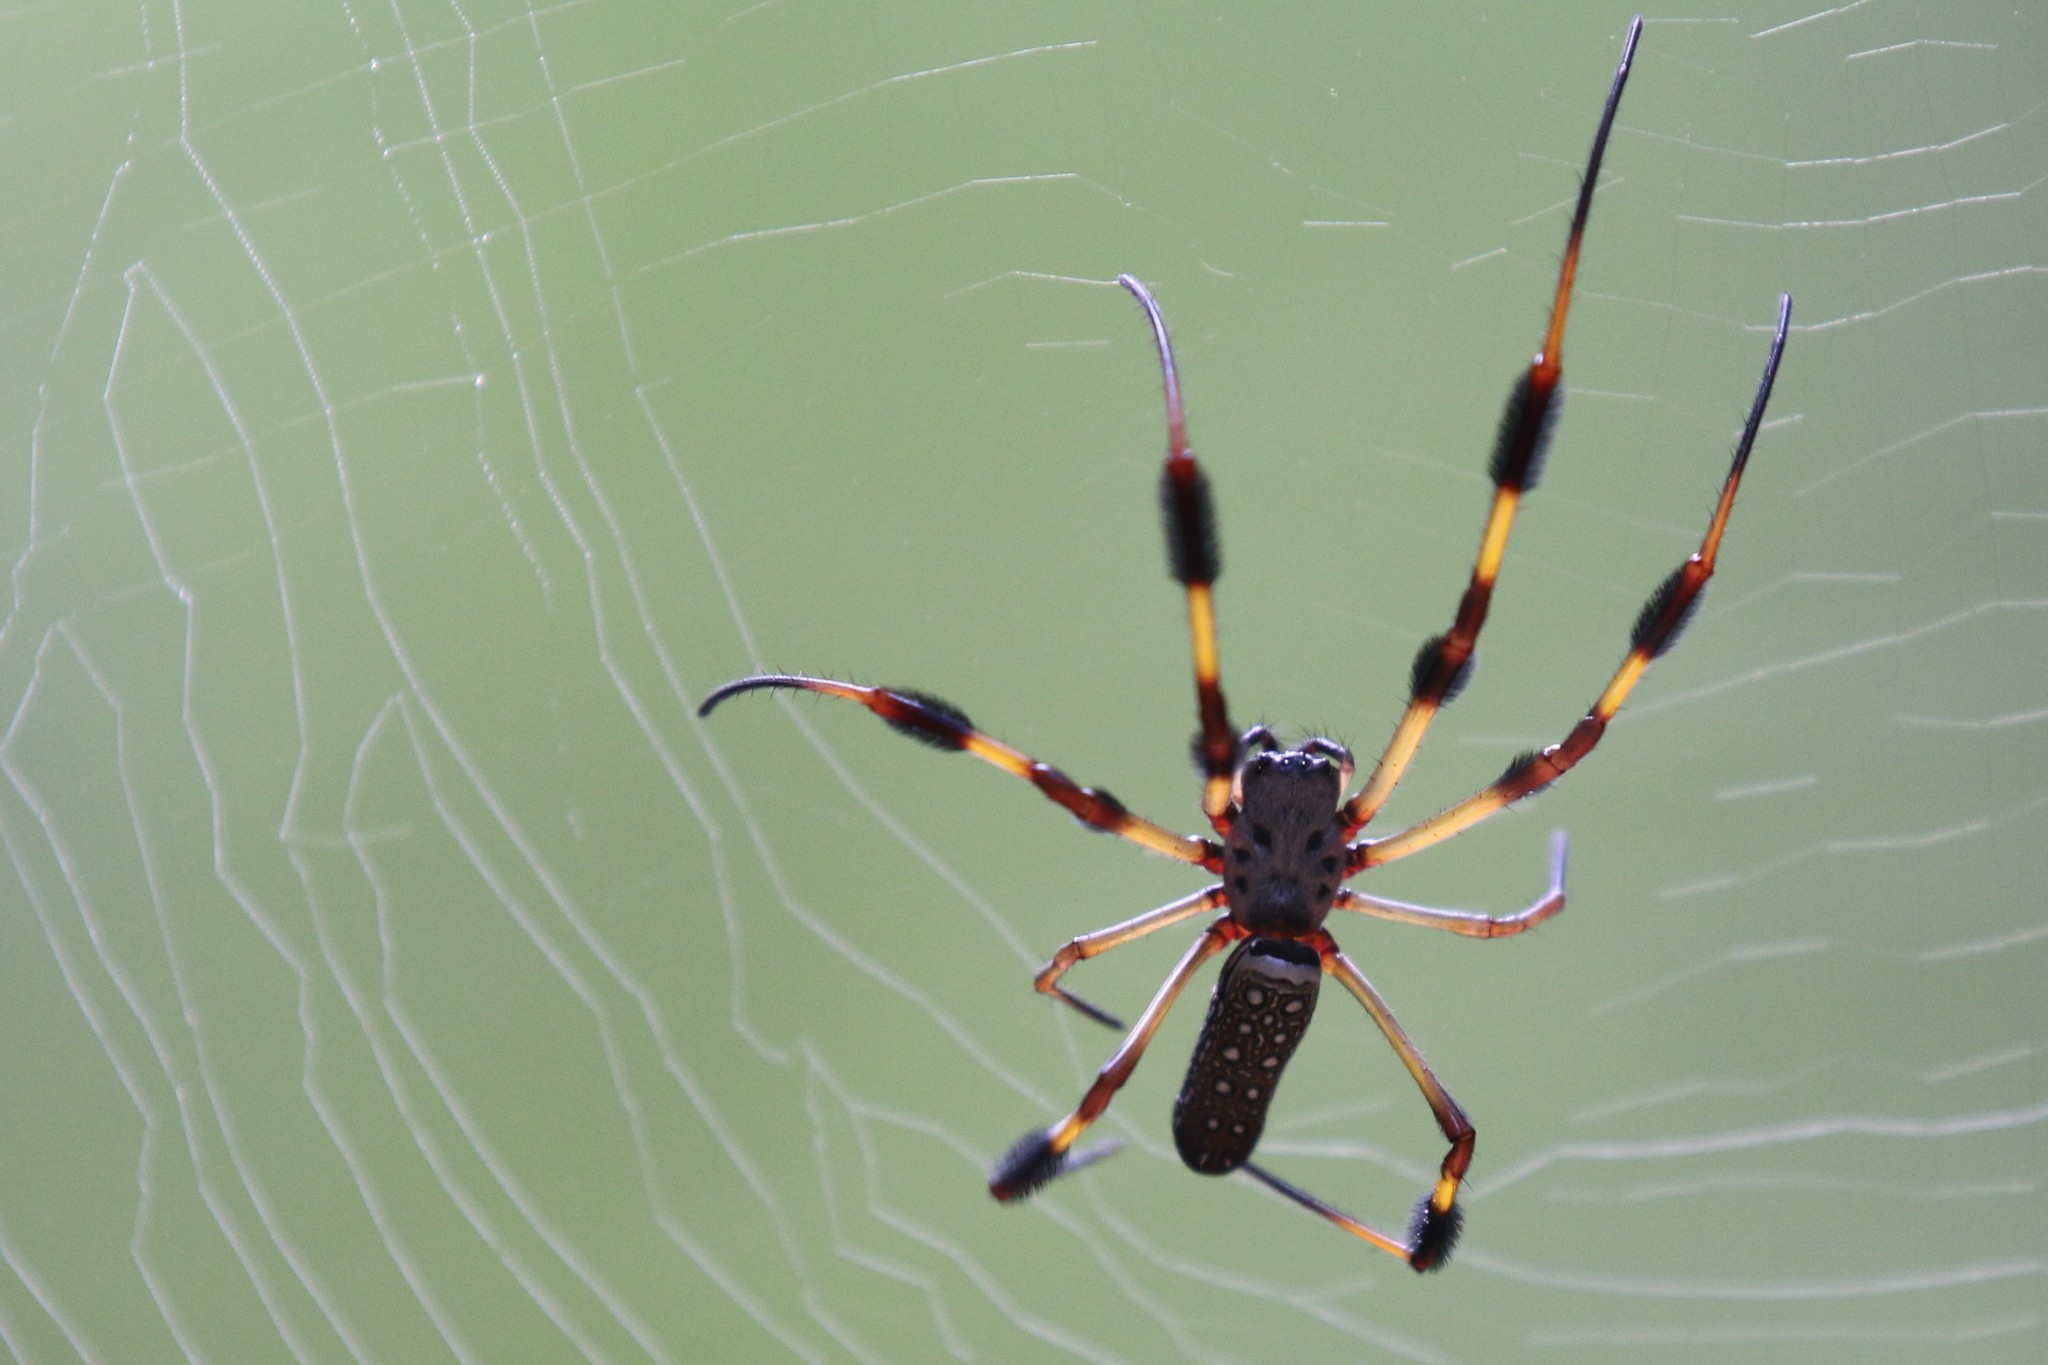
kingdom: Animalia
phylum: Arthropoda
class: Arachnida
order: Araneae
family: Araneidae
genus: Trichonephila
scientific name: Trichonephila clavipes
